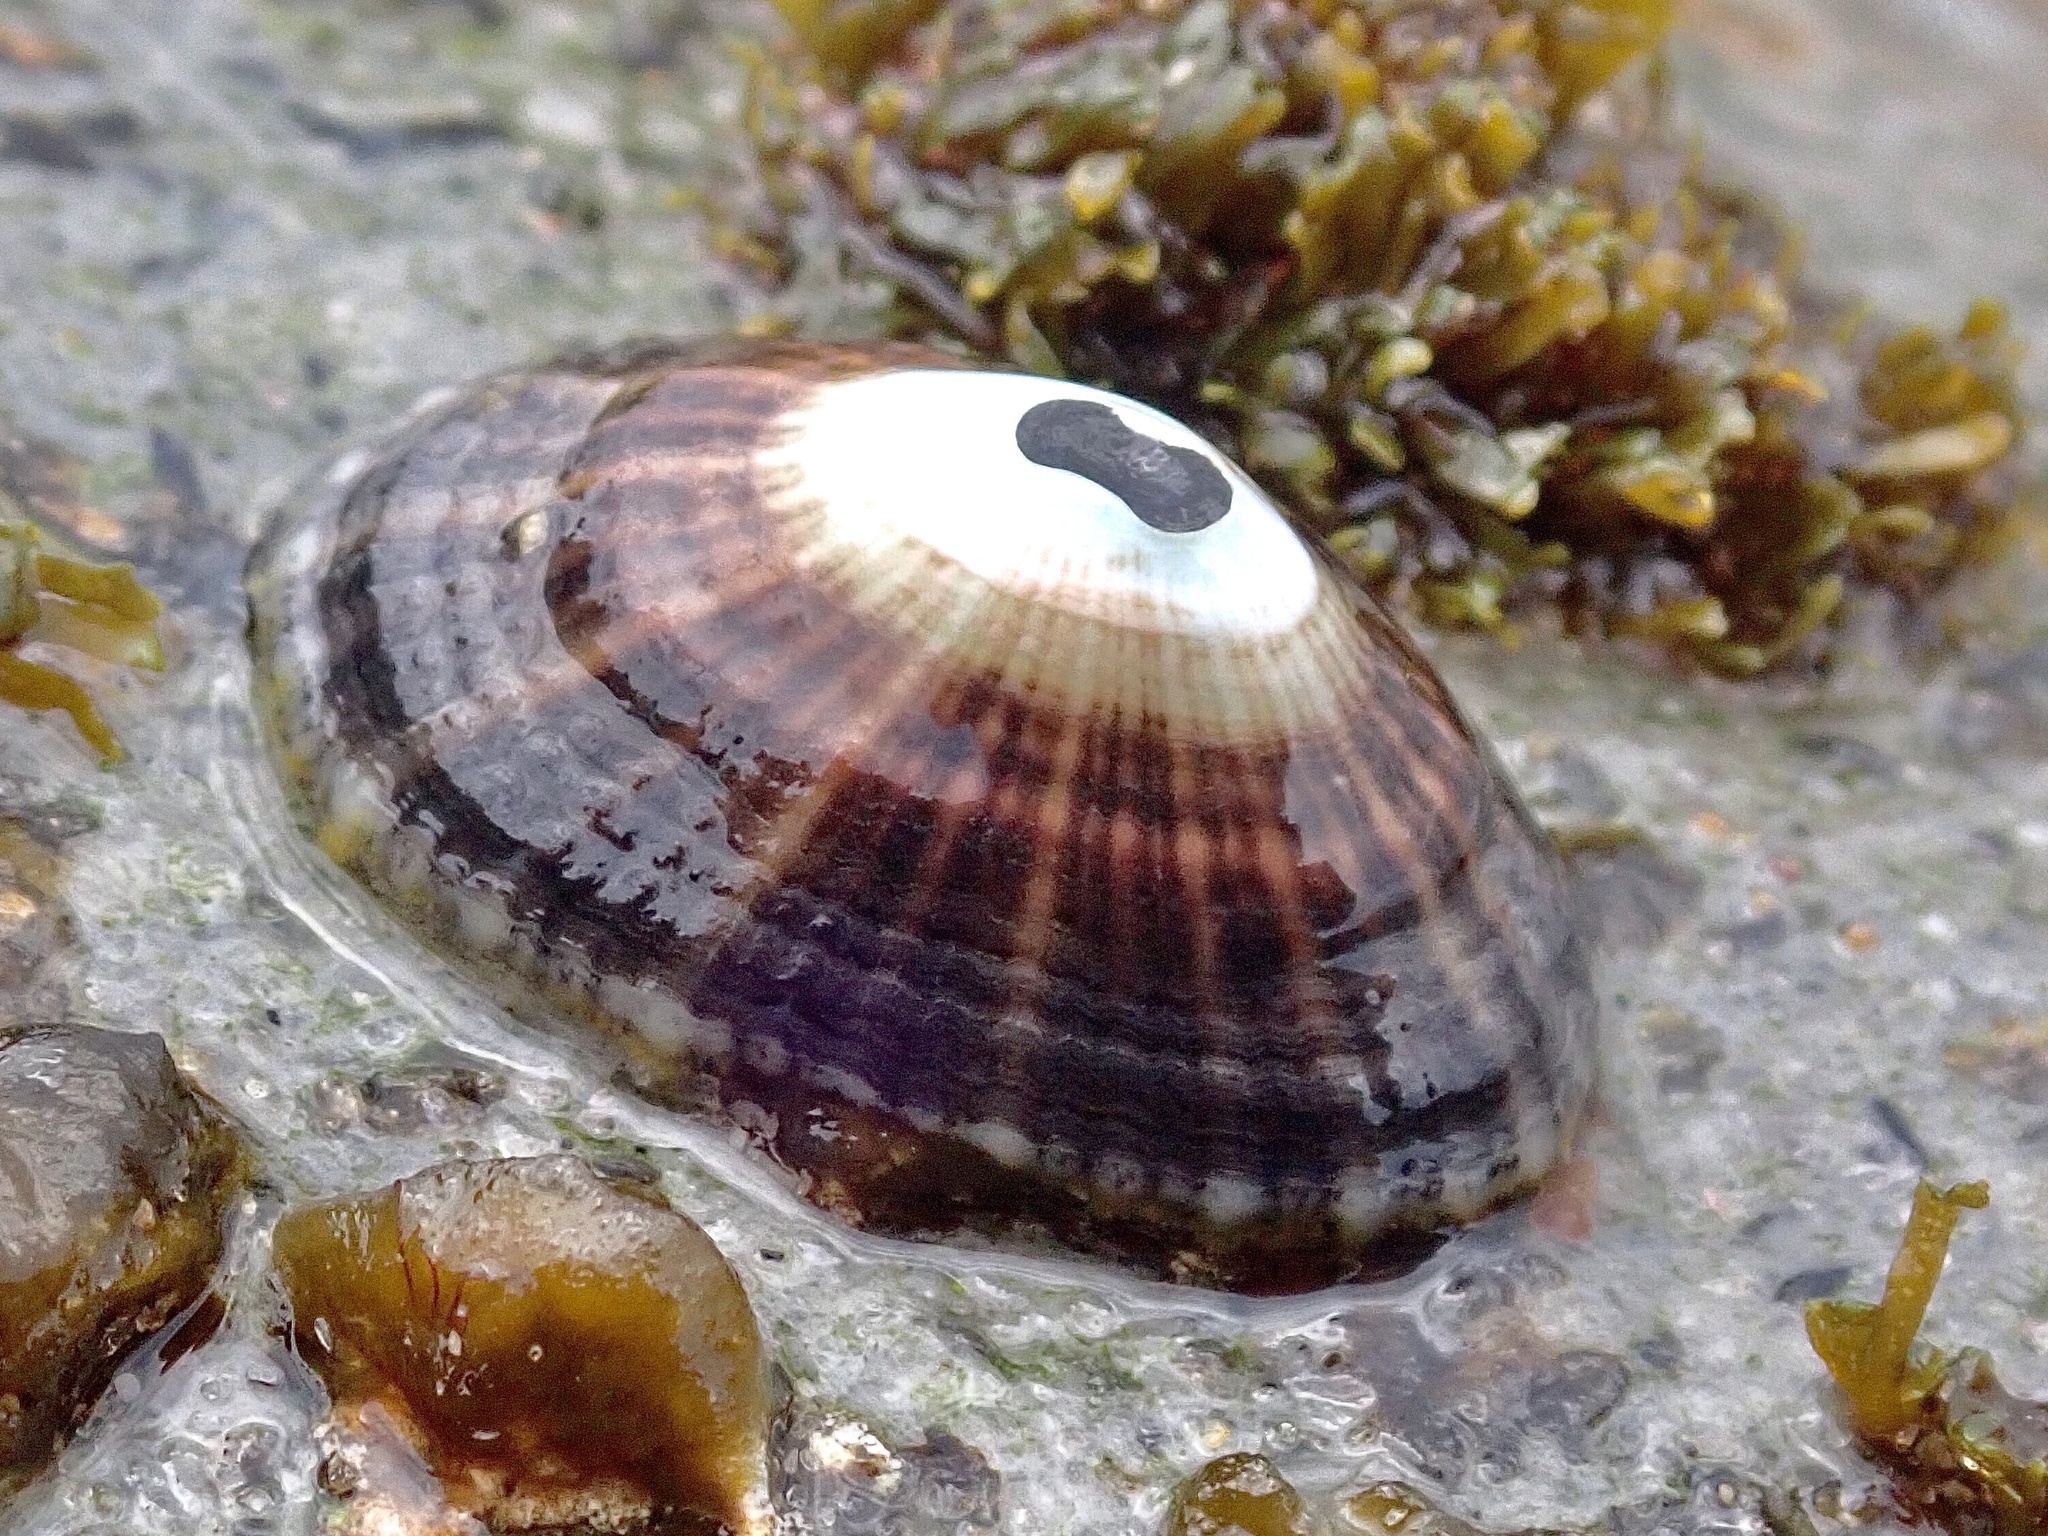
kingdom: Animalia
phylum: Mollusca
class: Gastropoda
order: Lepetellida
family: Fissurellidae
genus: Fissurella
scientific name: Fissurella rosea
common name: Rosy keyhole limpet
